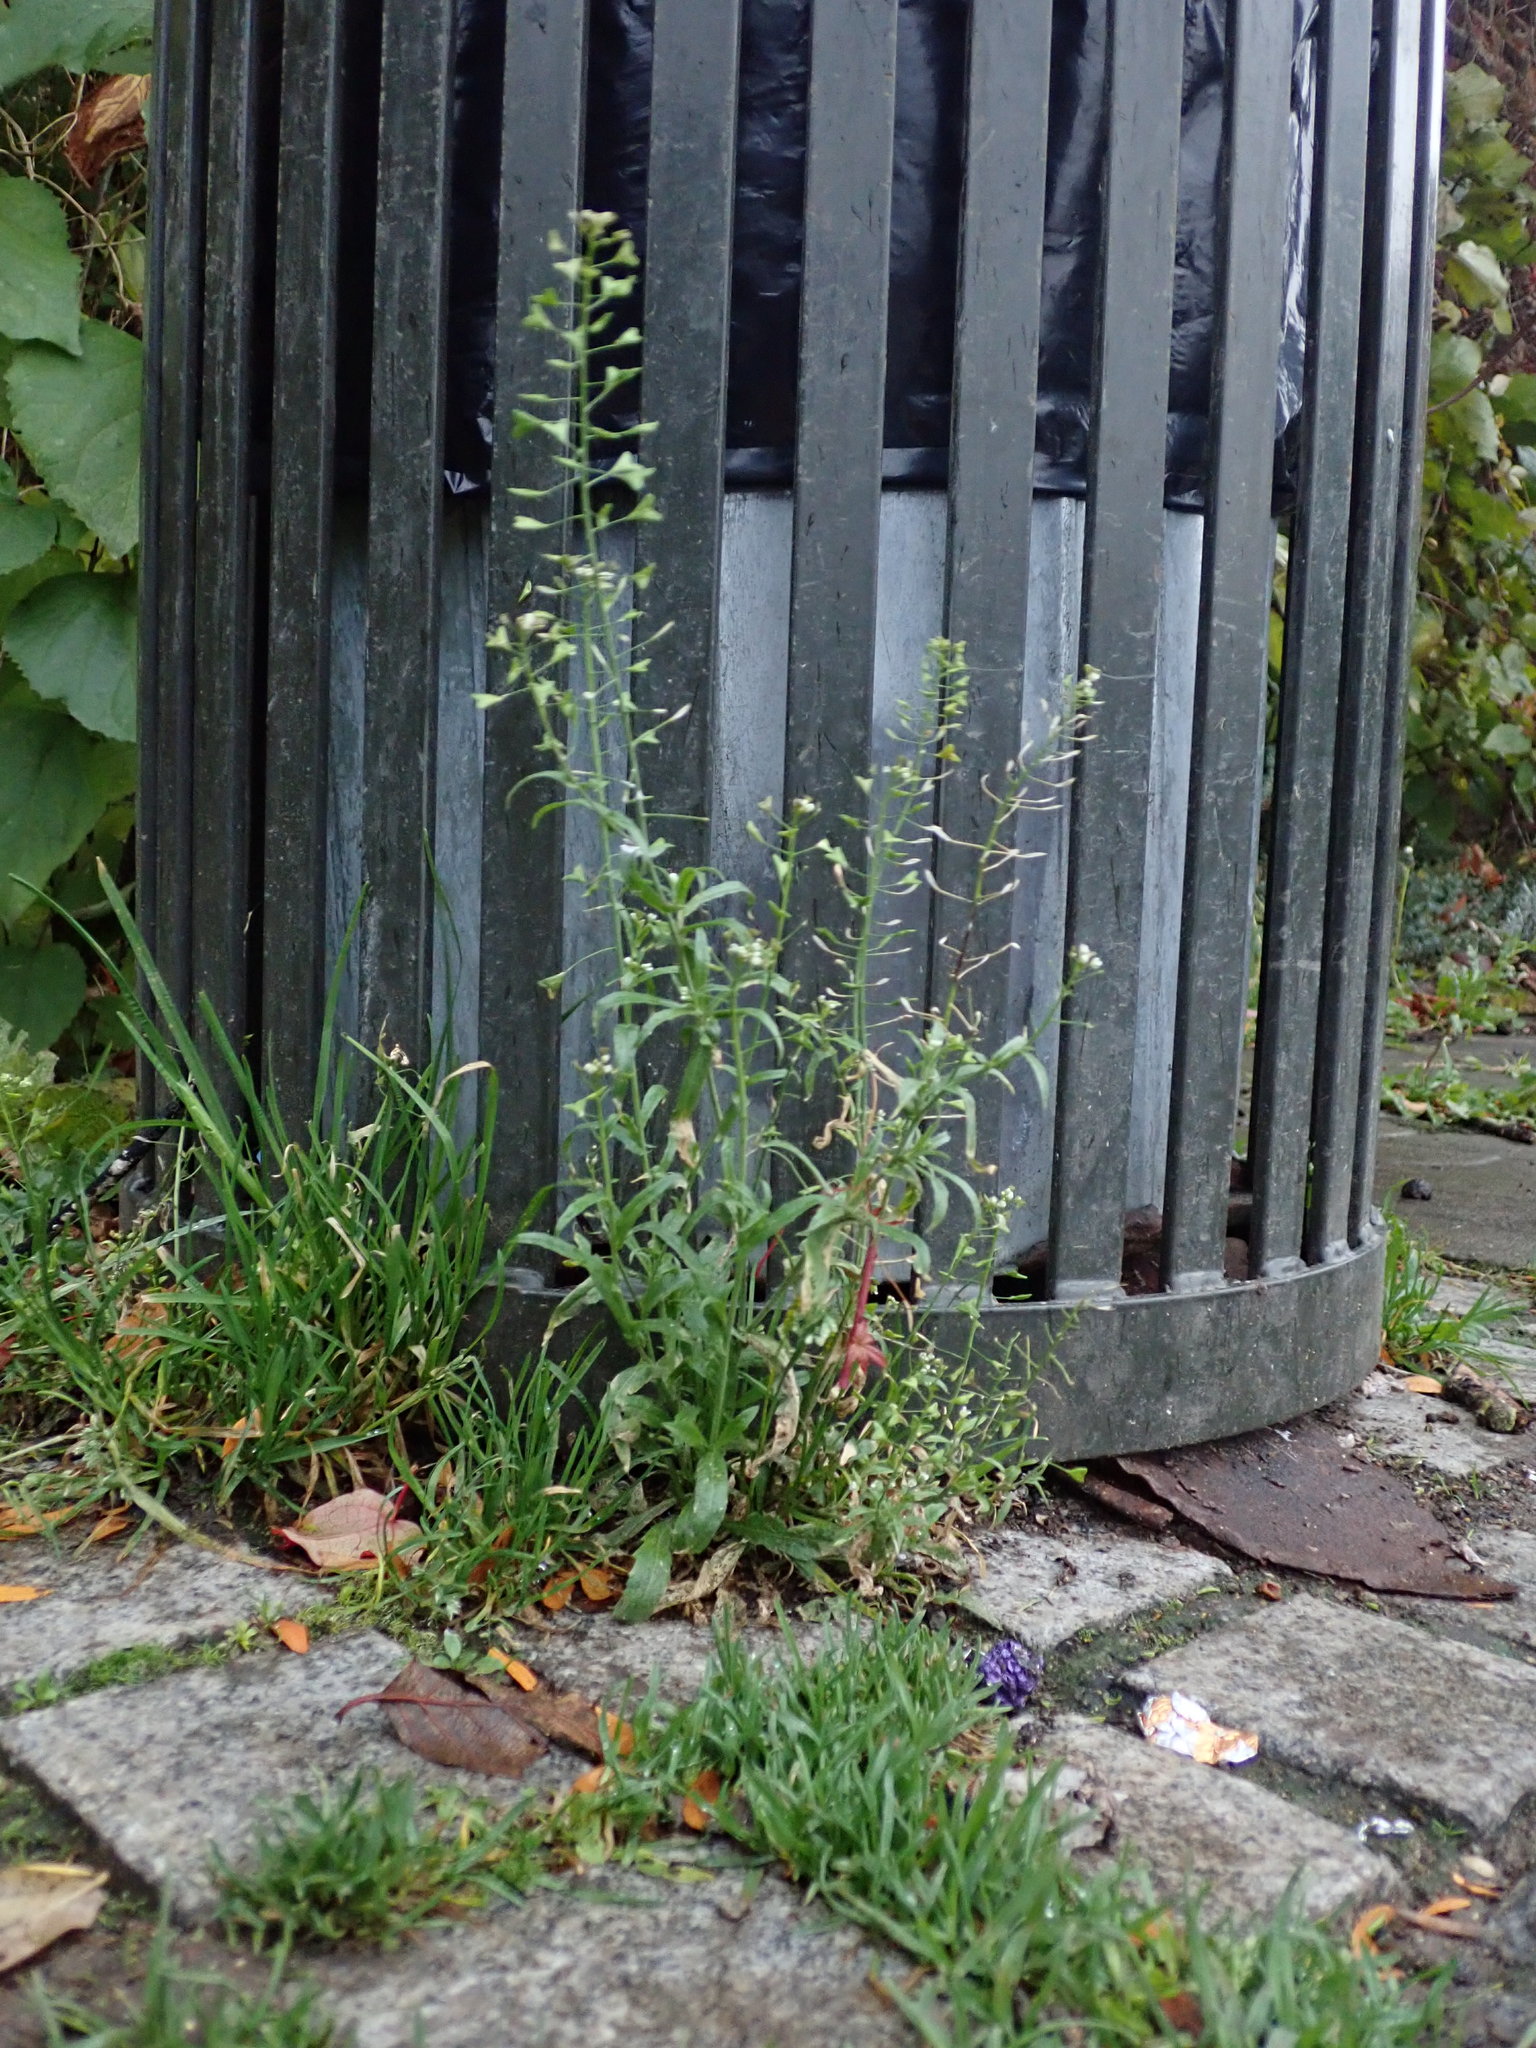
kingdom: Plantae
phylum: Tracheophyta
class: Magnoliopsida
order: Brassicales
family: Brassicaceae
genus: Capsella
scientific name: Capsella bursa-pastoris
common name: Shepherd's purse
